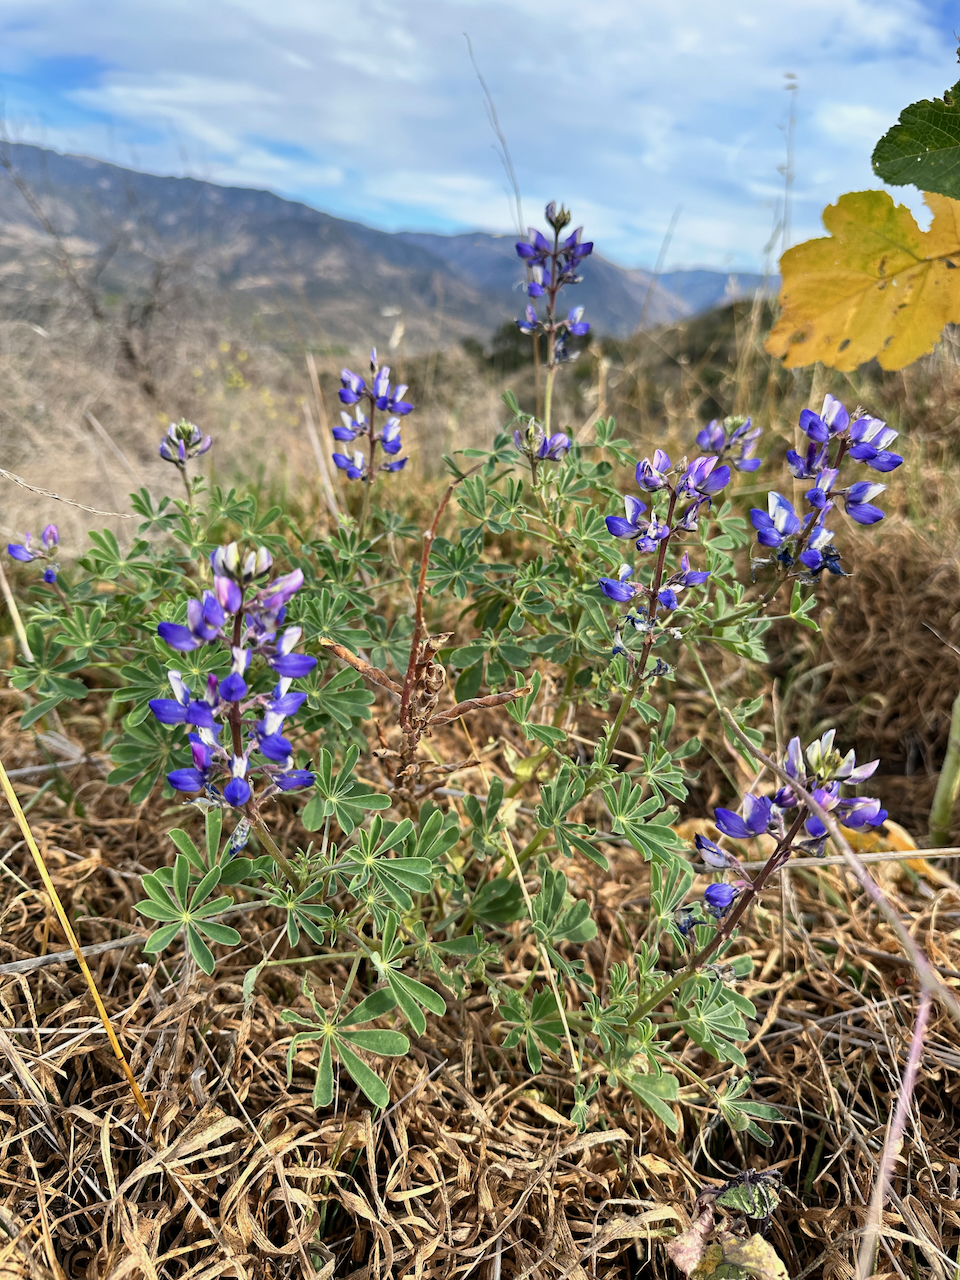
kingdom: Plantae
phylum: Tracheophyta
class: Magnoliopsida
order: Fabales
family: Fabaceae
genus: Lupinus
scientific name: Lupinus succulentus
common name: Arroyo lupine
